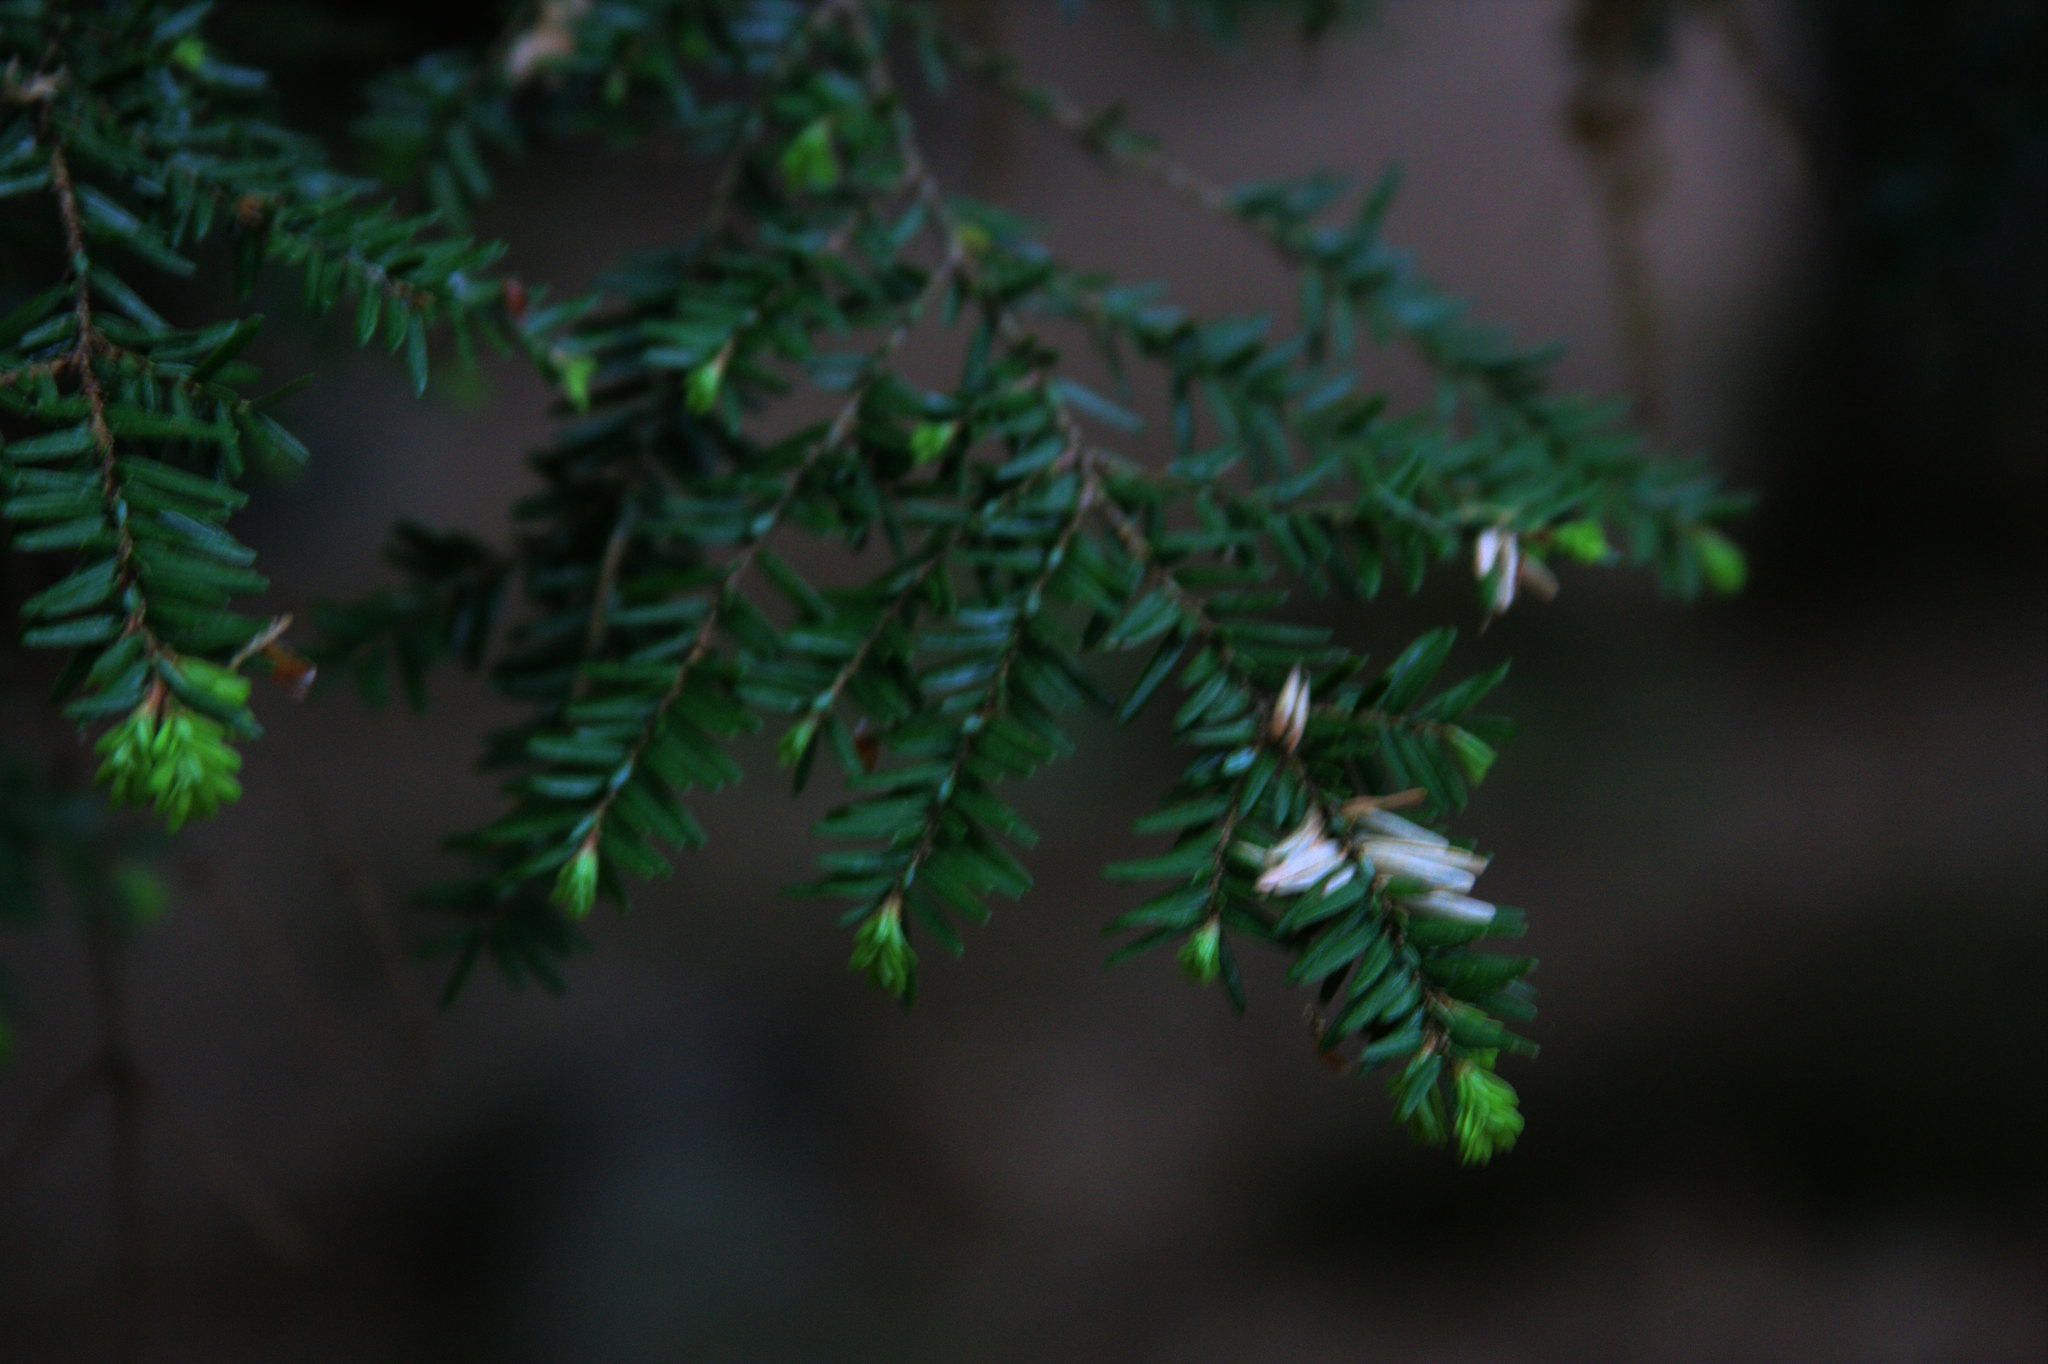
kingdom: Plantae
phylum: Tracheophyta
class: Pinopsida
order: Pinales
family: Pinaceae
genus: Tsuga
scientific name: Tsuga canadensis
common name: Eastern hemlock
